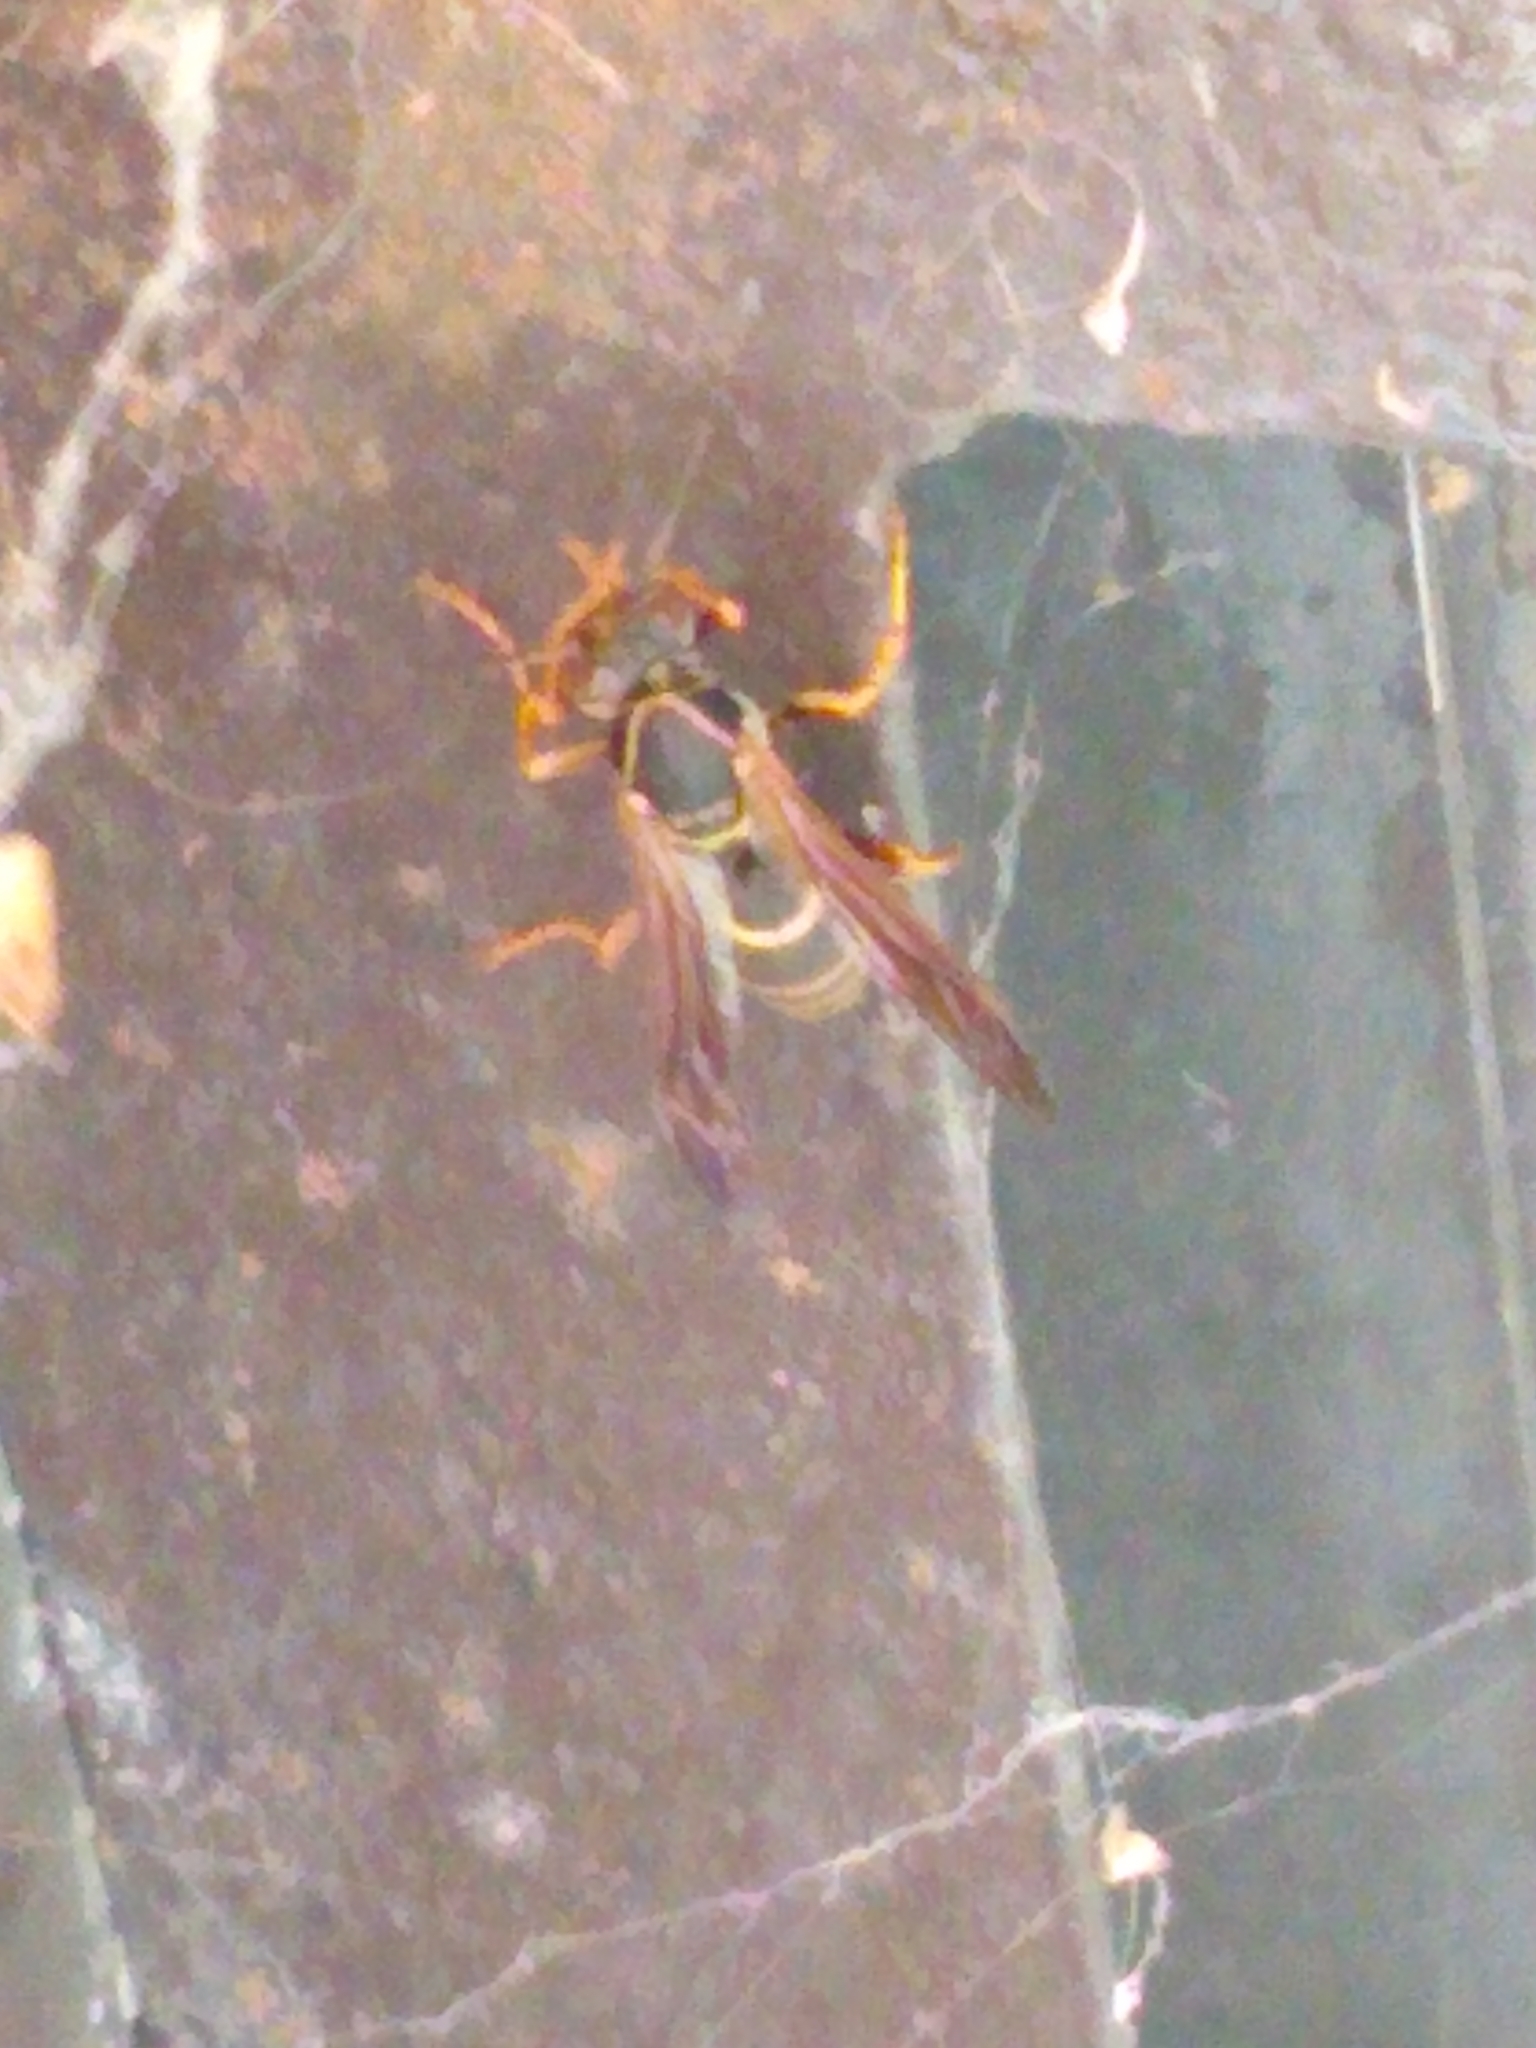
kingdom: Animalia
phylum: Arthropoda
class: Insecta
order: Hymenoptera
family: Eumenidae
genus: Polistes
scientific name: Polistes fuscatus
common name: Dark paper wasp
